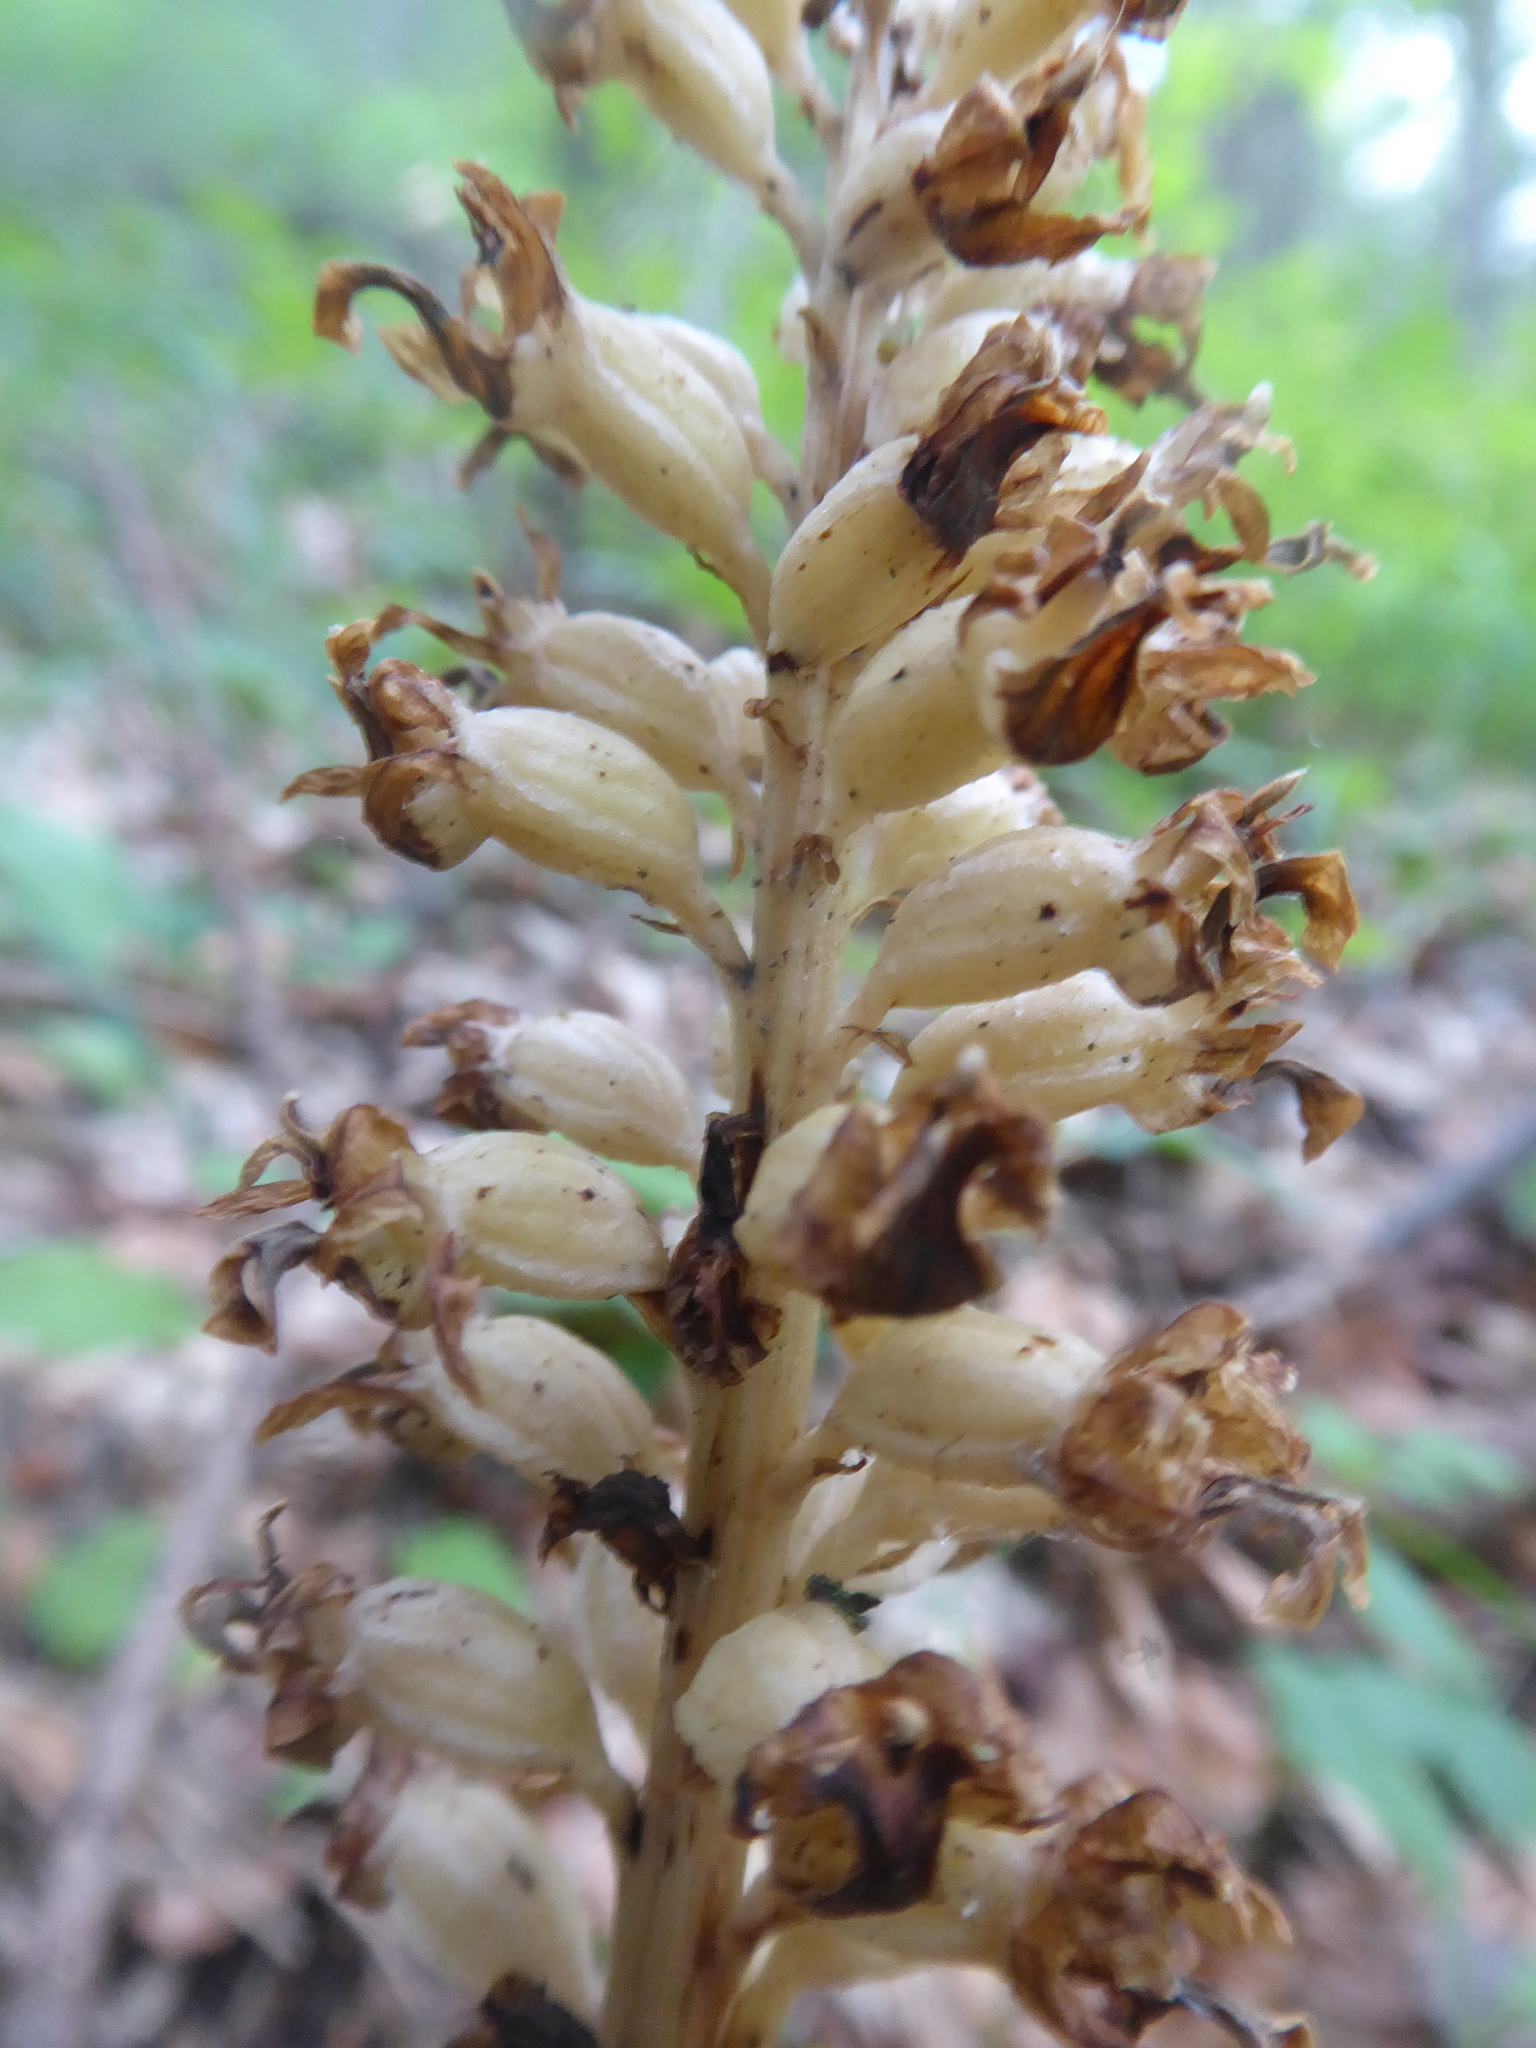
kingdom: Plantae
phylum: Tracheophyta
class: Liliopsida
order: Asparagales
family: Orchidaceae
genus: Neottia
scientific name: Neottia nidus-avis
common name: Bird's-nest orchid
